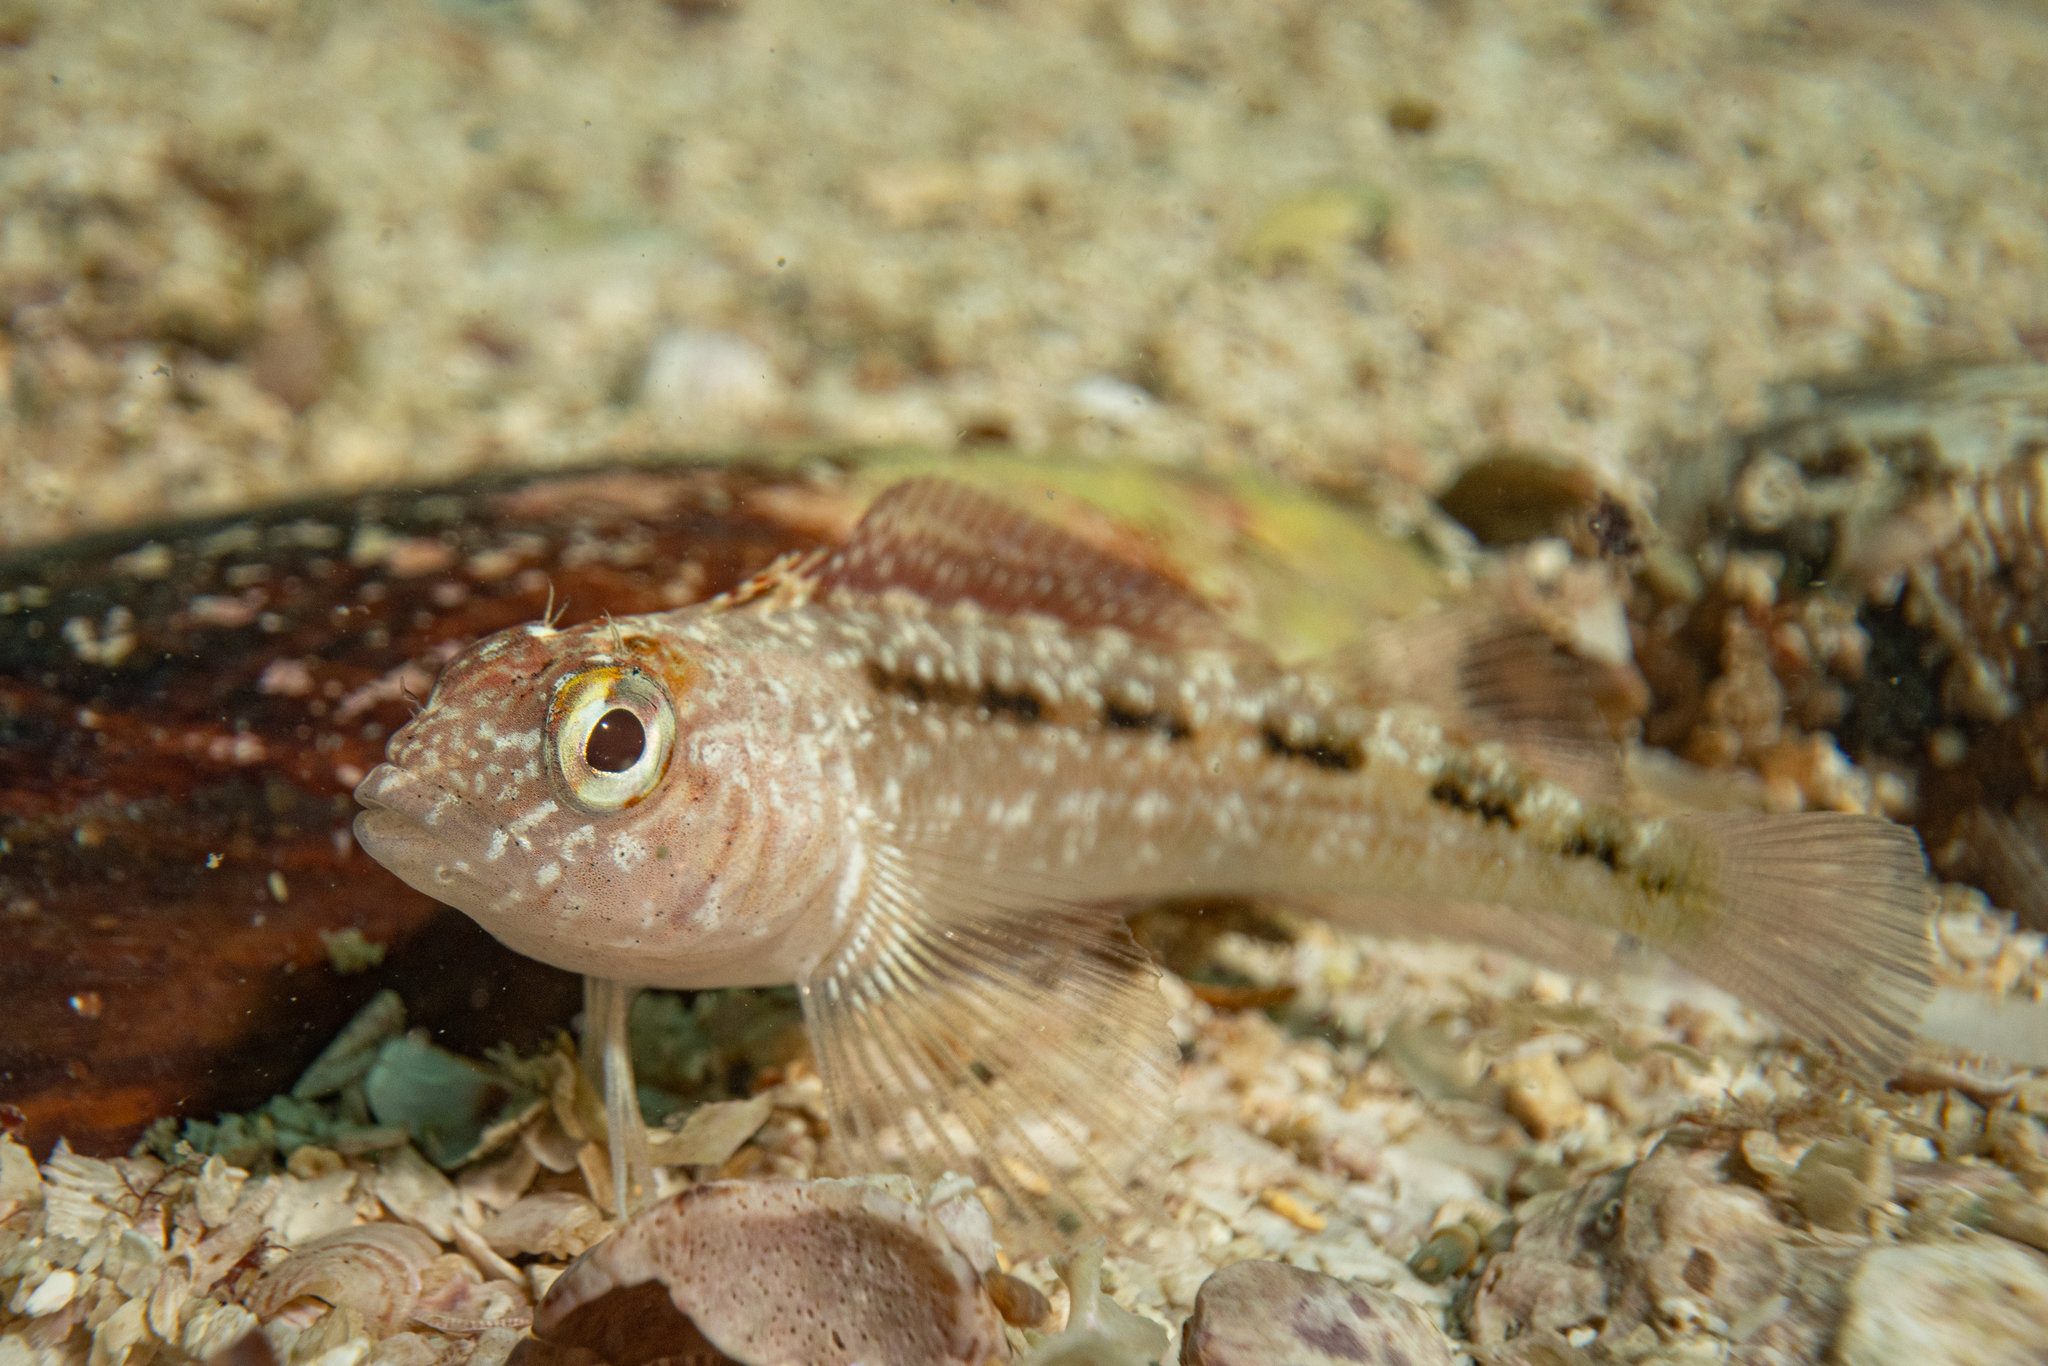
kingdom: Animalia
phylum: Chordata
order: Perciformes
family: Tripterygiidae
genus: Forsterygion
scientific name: Forsterygion lapillum
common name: Common triplefin
